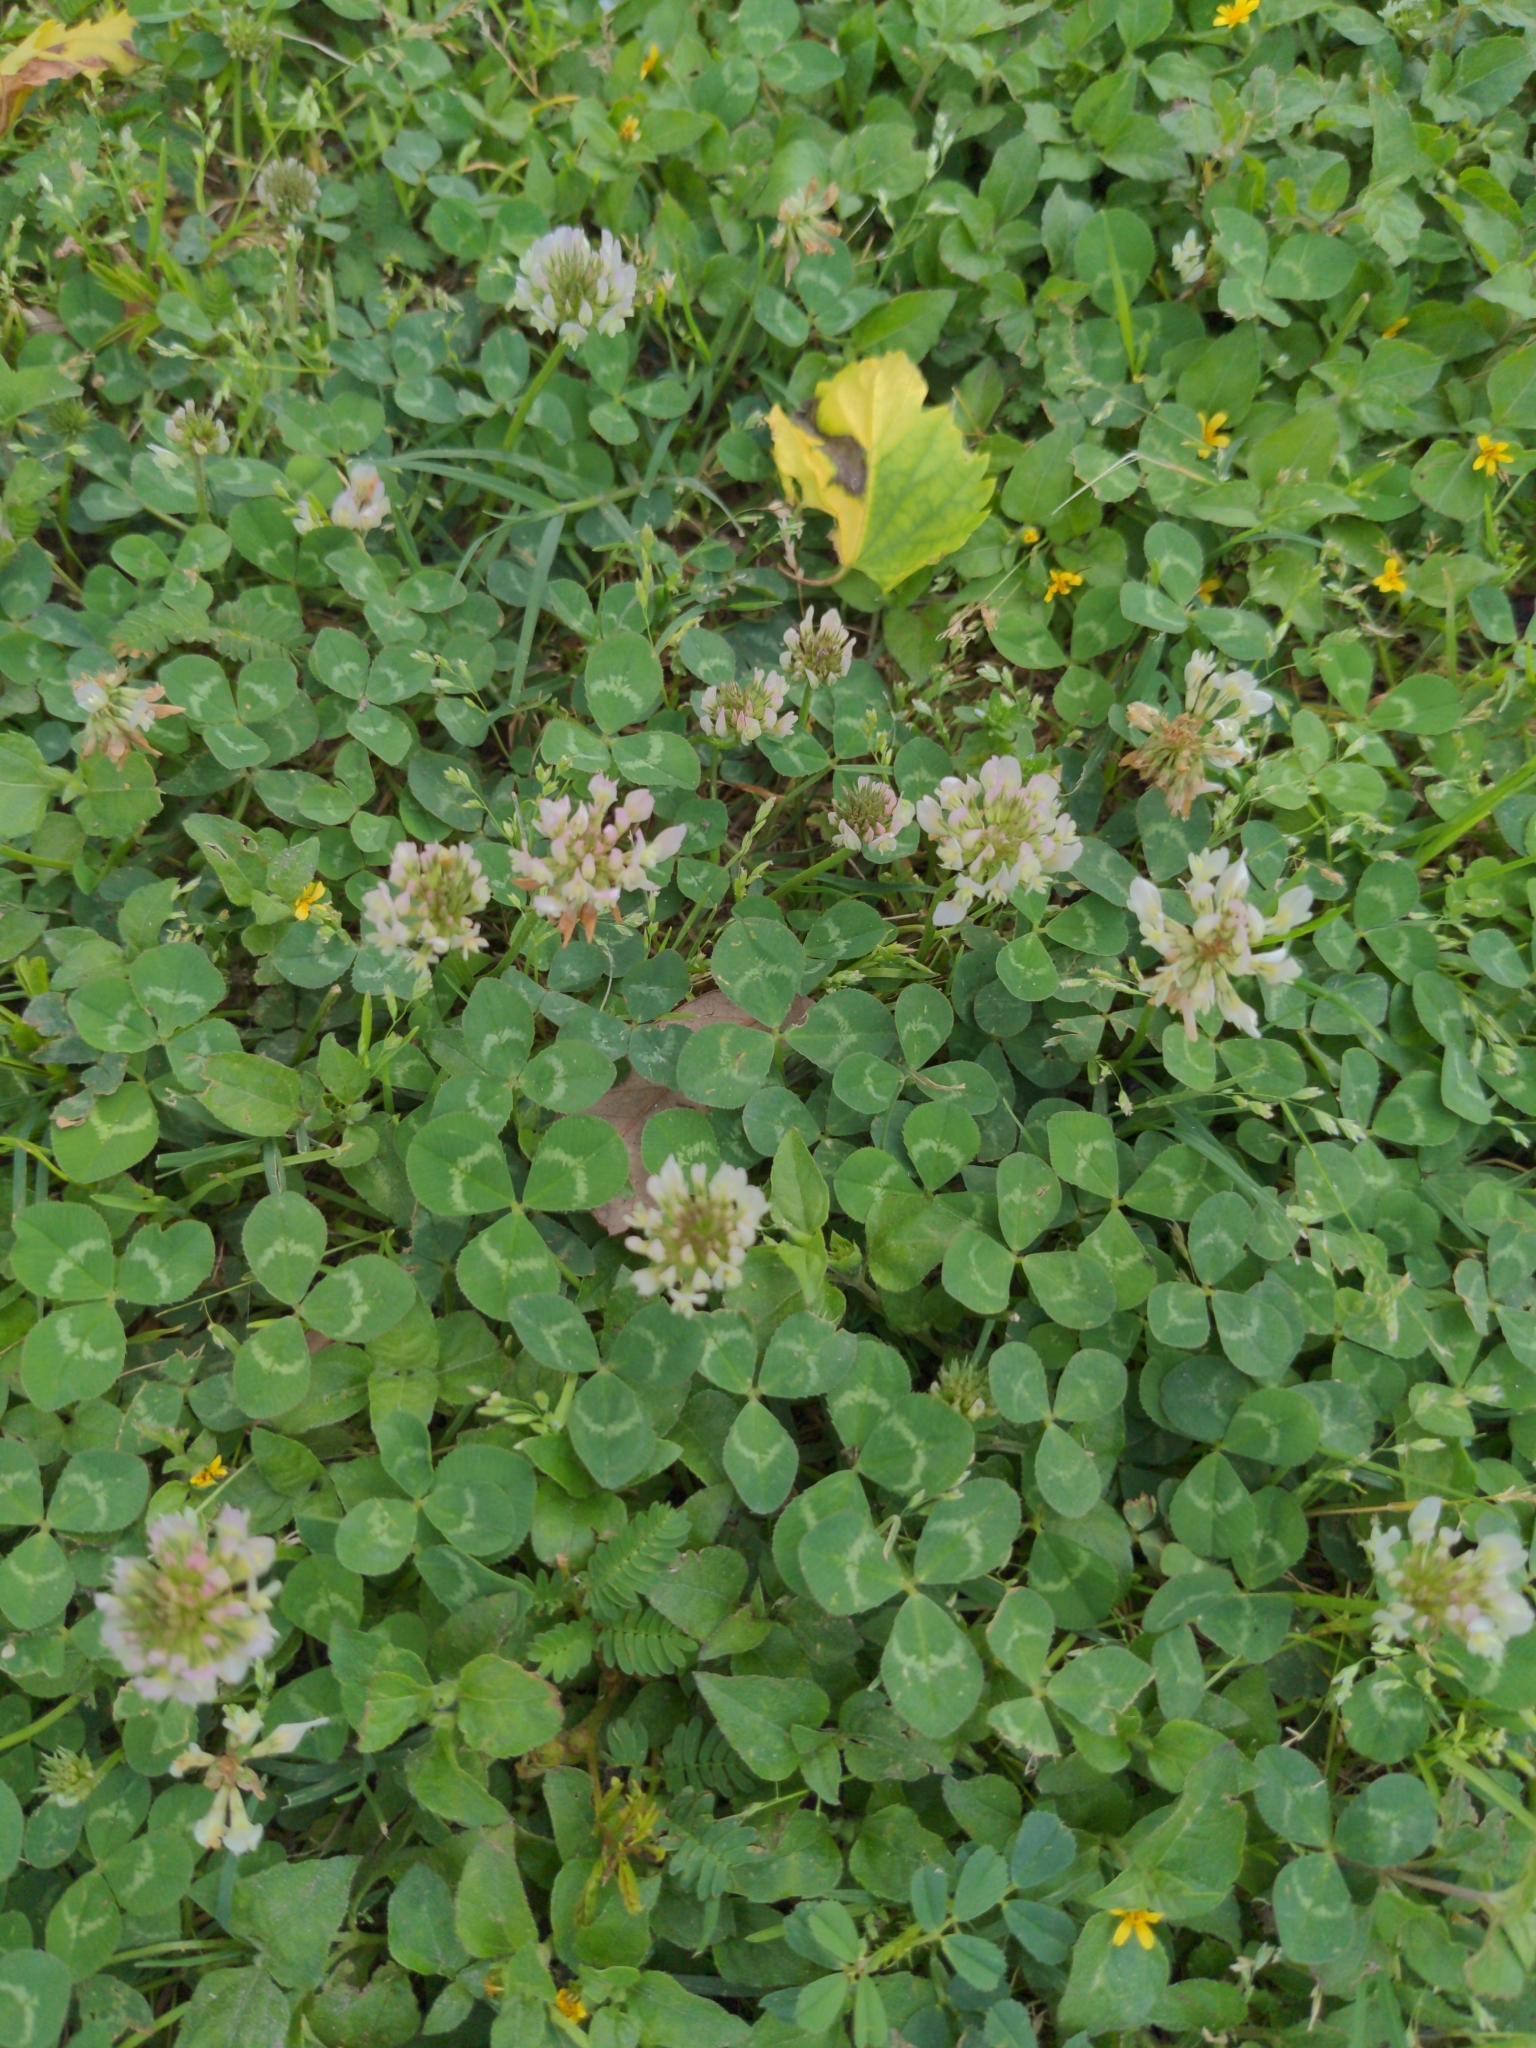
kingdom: Plantae
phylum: Tracheophyta
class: Magnoliopsida
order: Fabales
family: Fabaceae
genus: Trifolium
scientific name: Trifolium repens
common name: White clover
